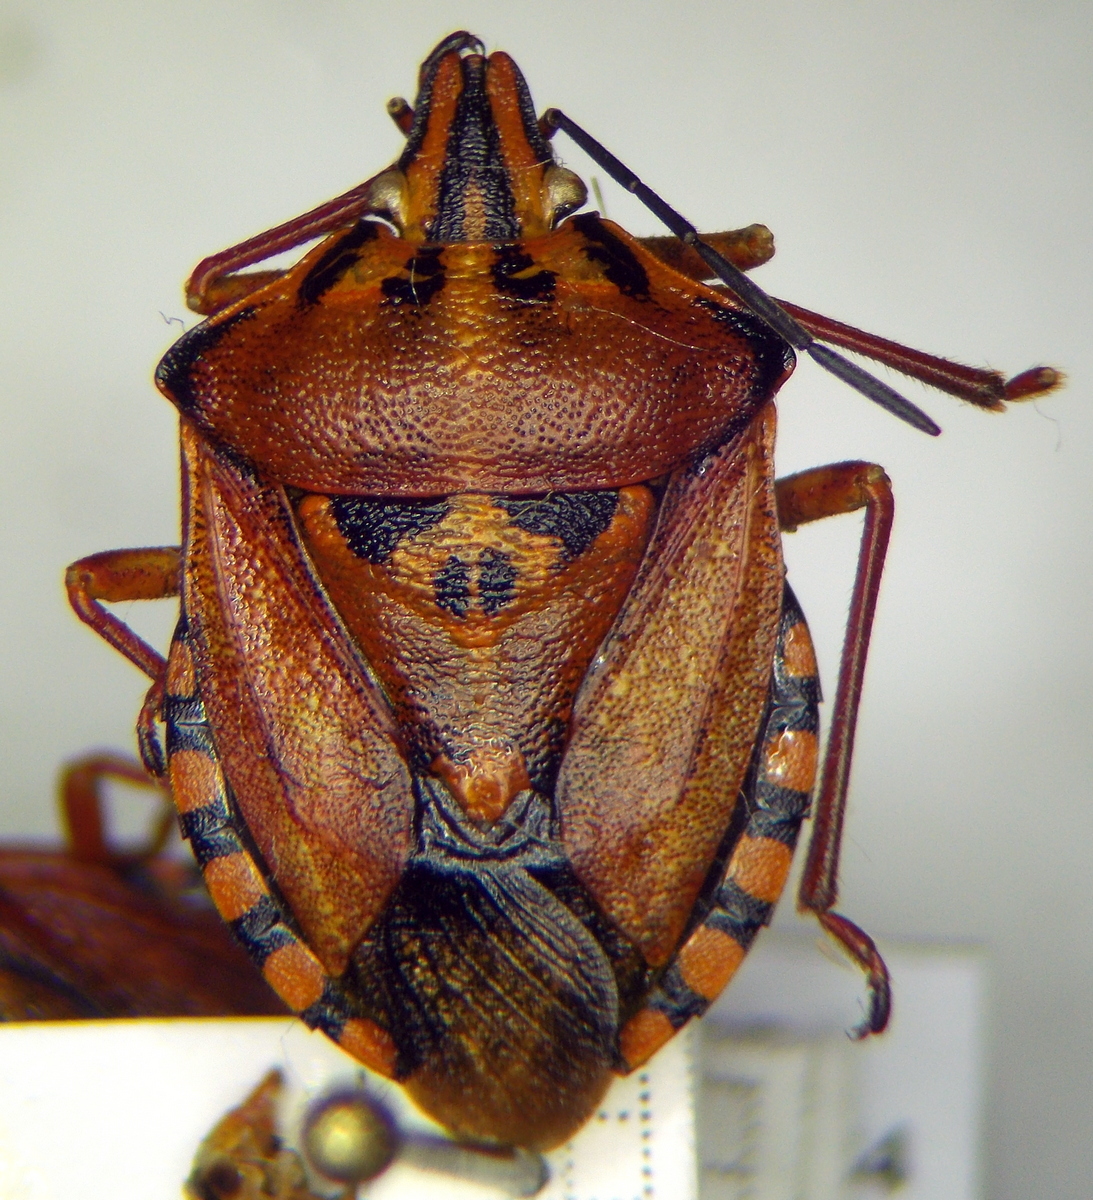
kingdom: Animalia
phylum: Arthropoda
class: Insecta
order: Hemiptera
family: Pentatomidae
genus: Carpocoris
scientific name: Carpocoris mediterraneus
